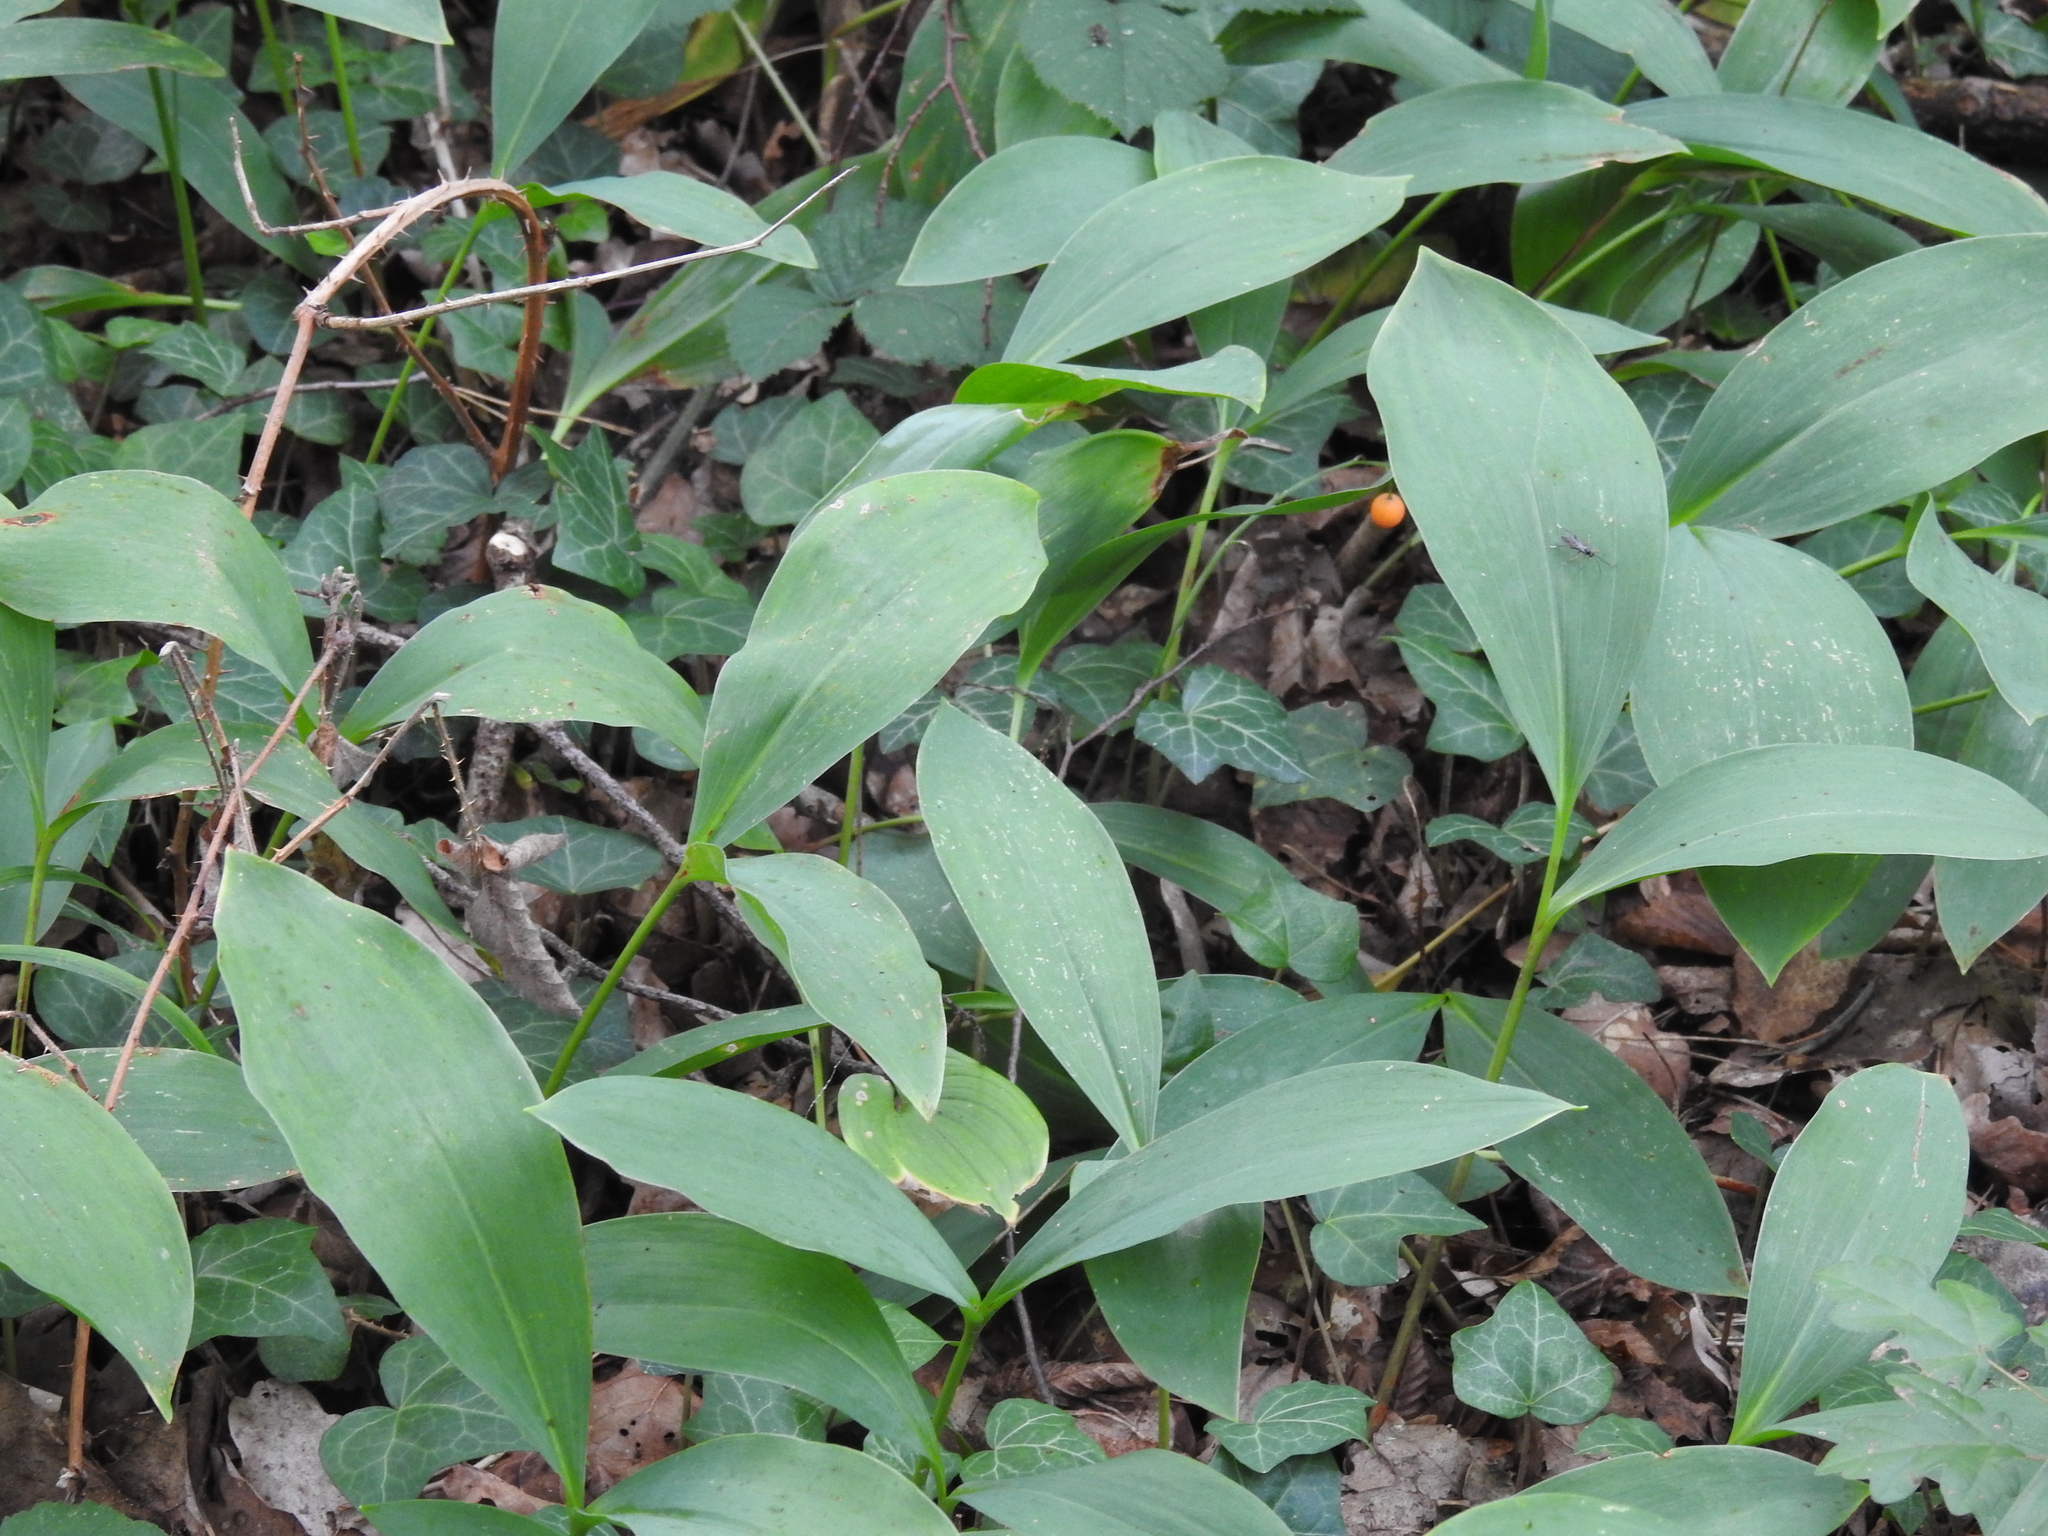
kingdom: Plantae
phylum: Tracheophyta
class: Liliopsida
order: Asparagales
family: Asparagaceae
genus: Convallaria
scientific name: Convallaria majalis
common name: Lily-of-the-valley
